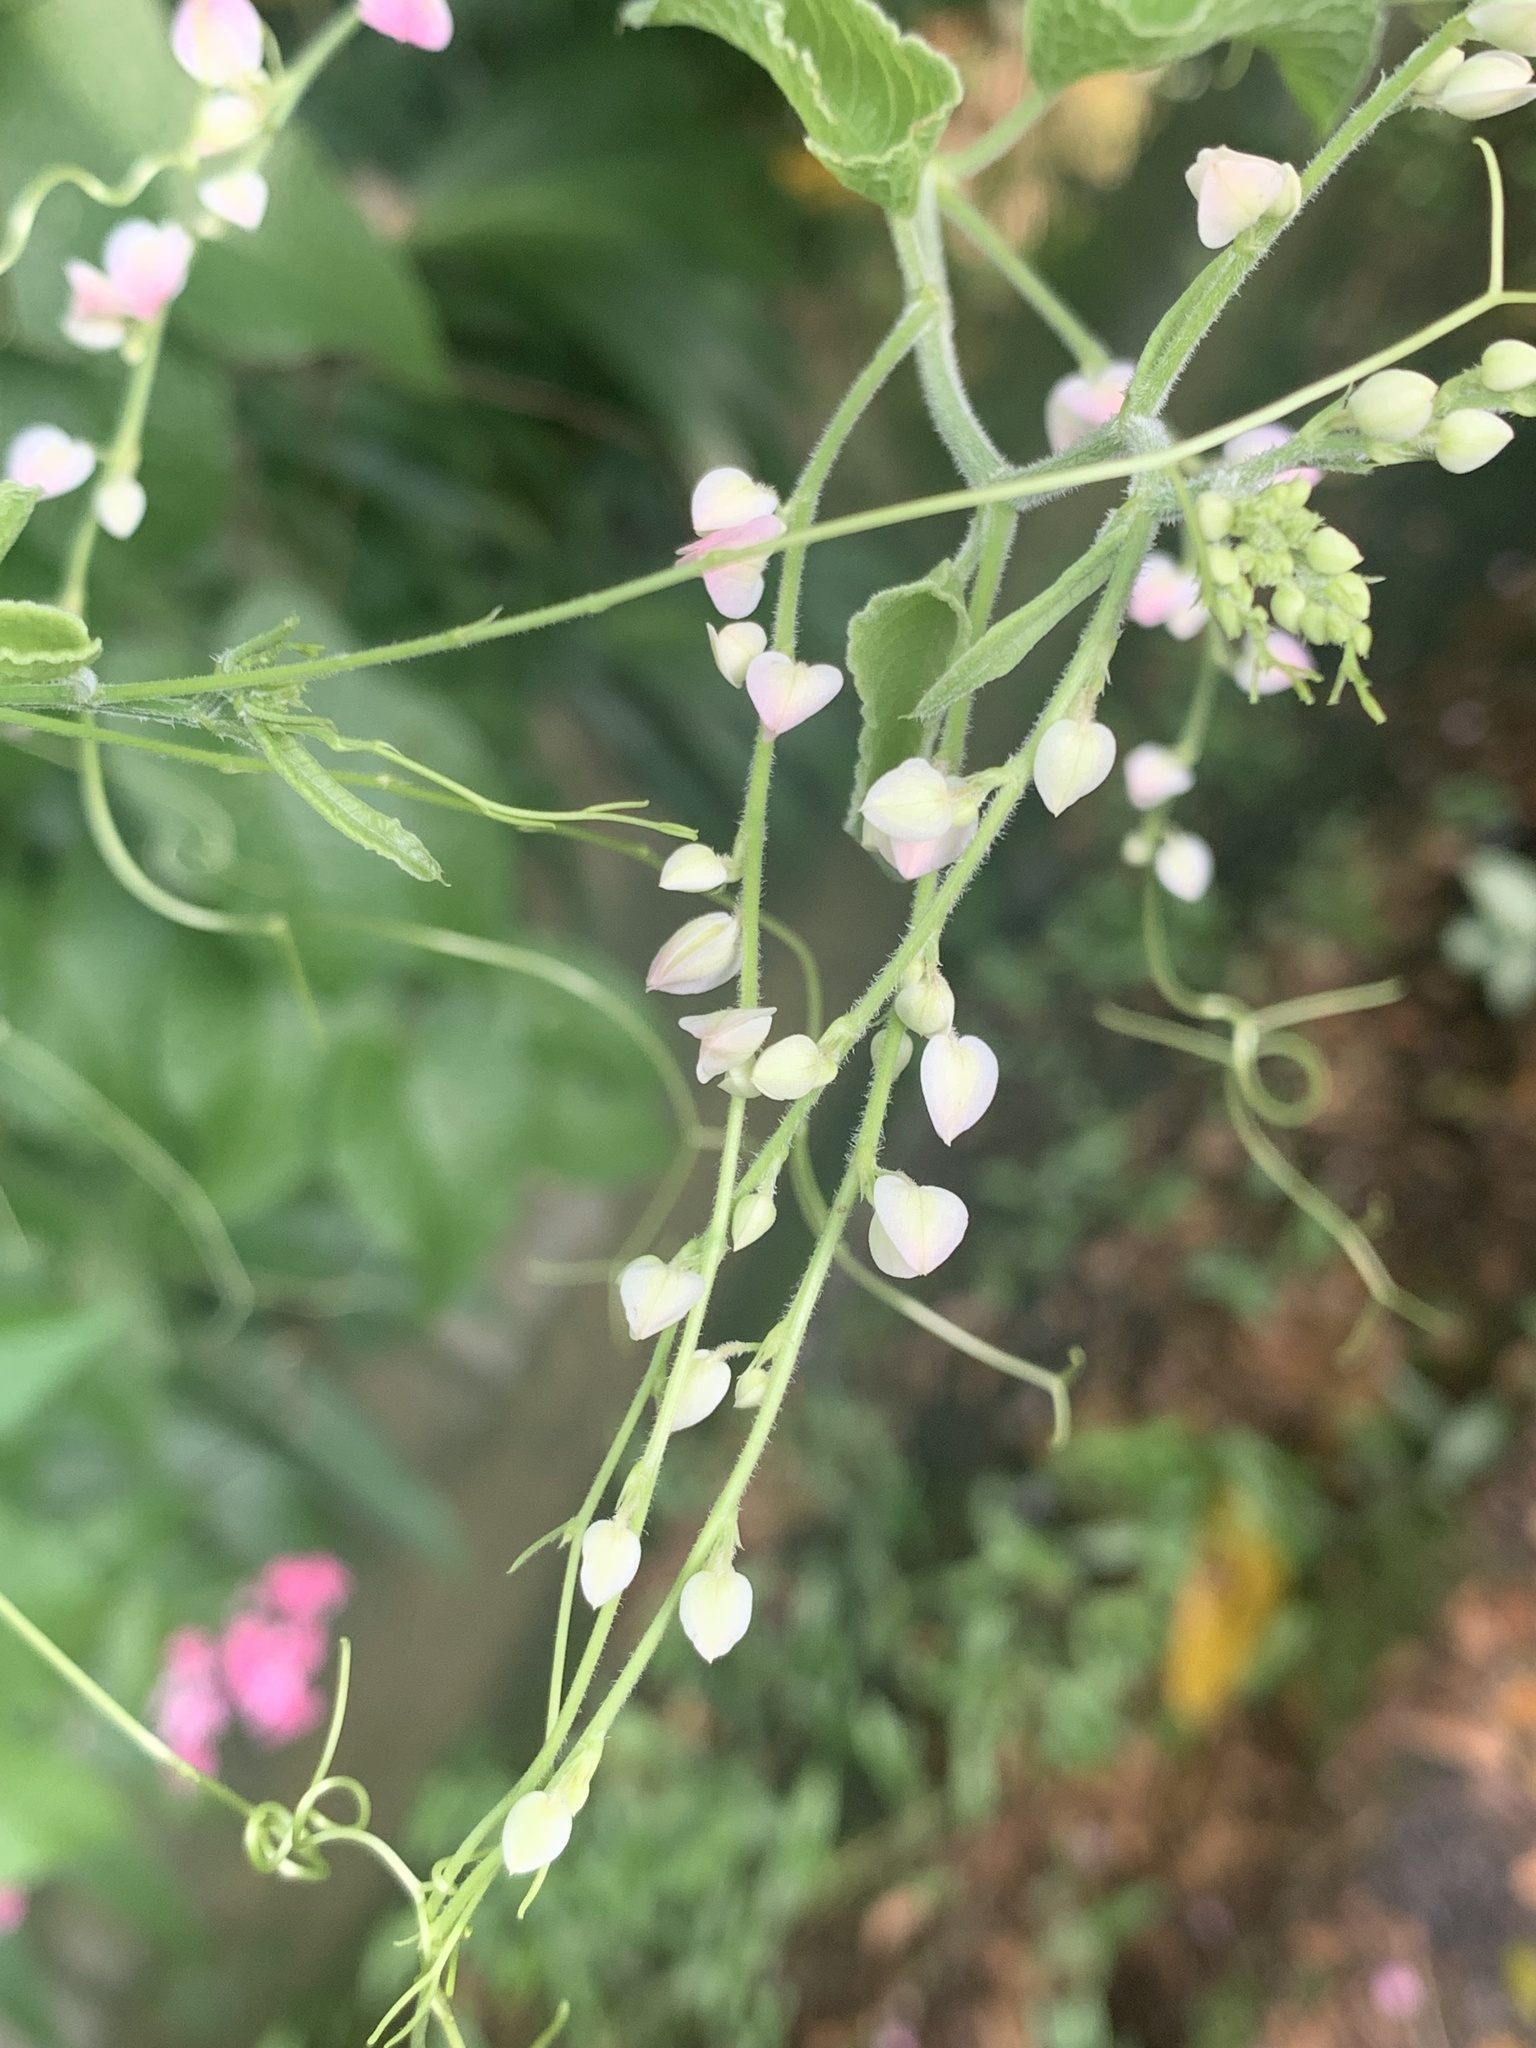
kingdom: Plantae
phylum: Tracheophyta
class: Magnoliopsida
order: Caryophyllales
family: Polygonaceae
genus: Antigonon
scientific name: Antigonon leptopus
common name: Coral vine
